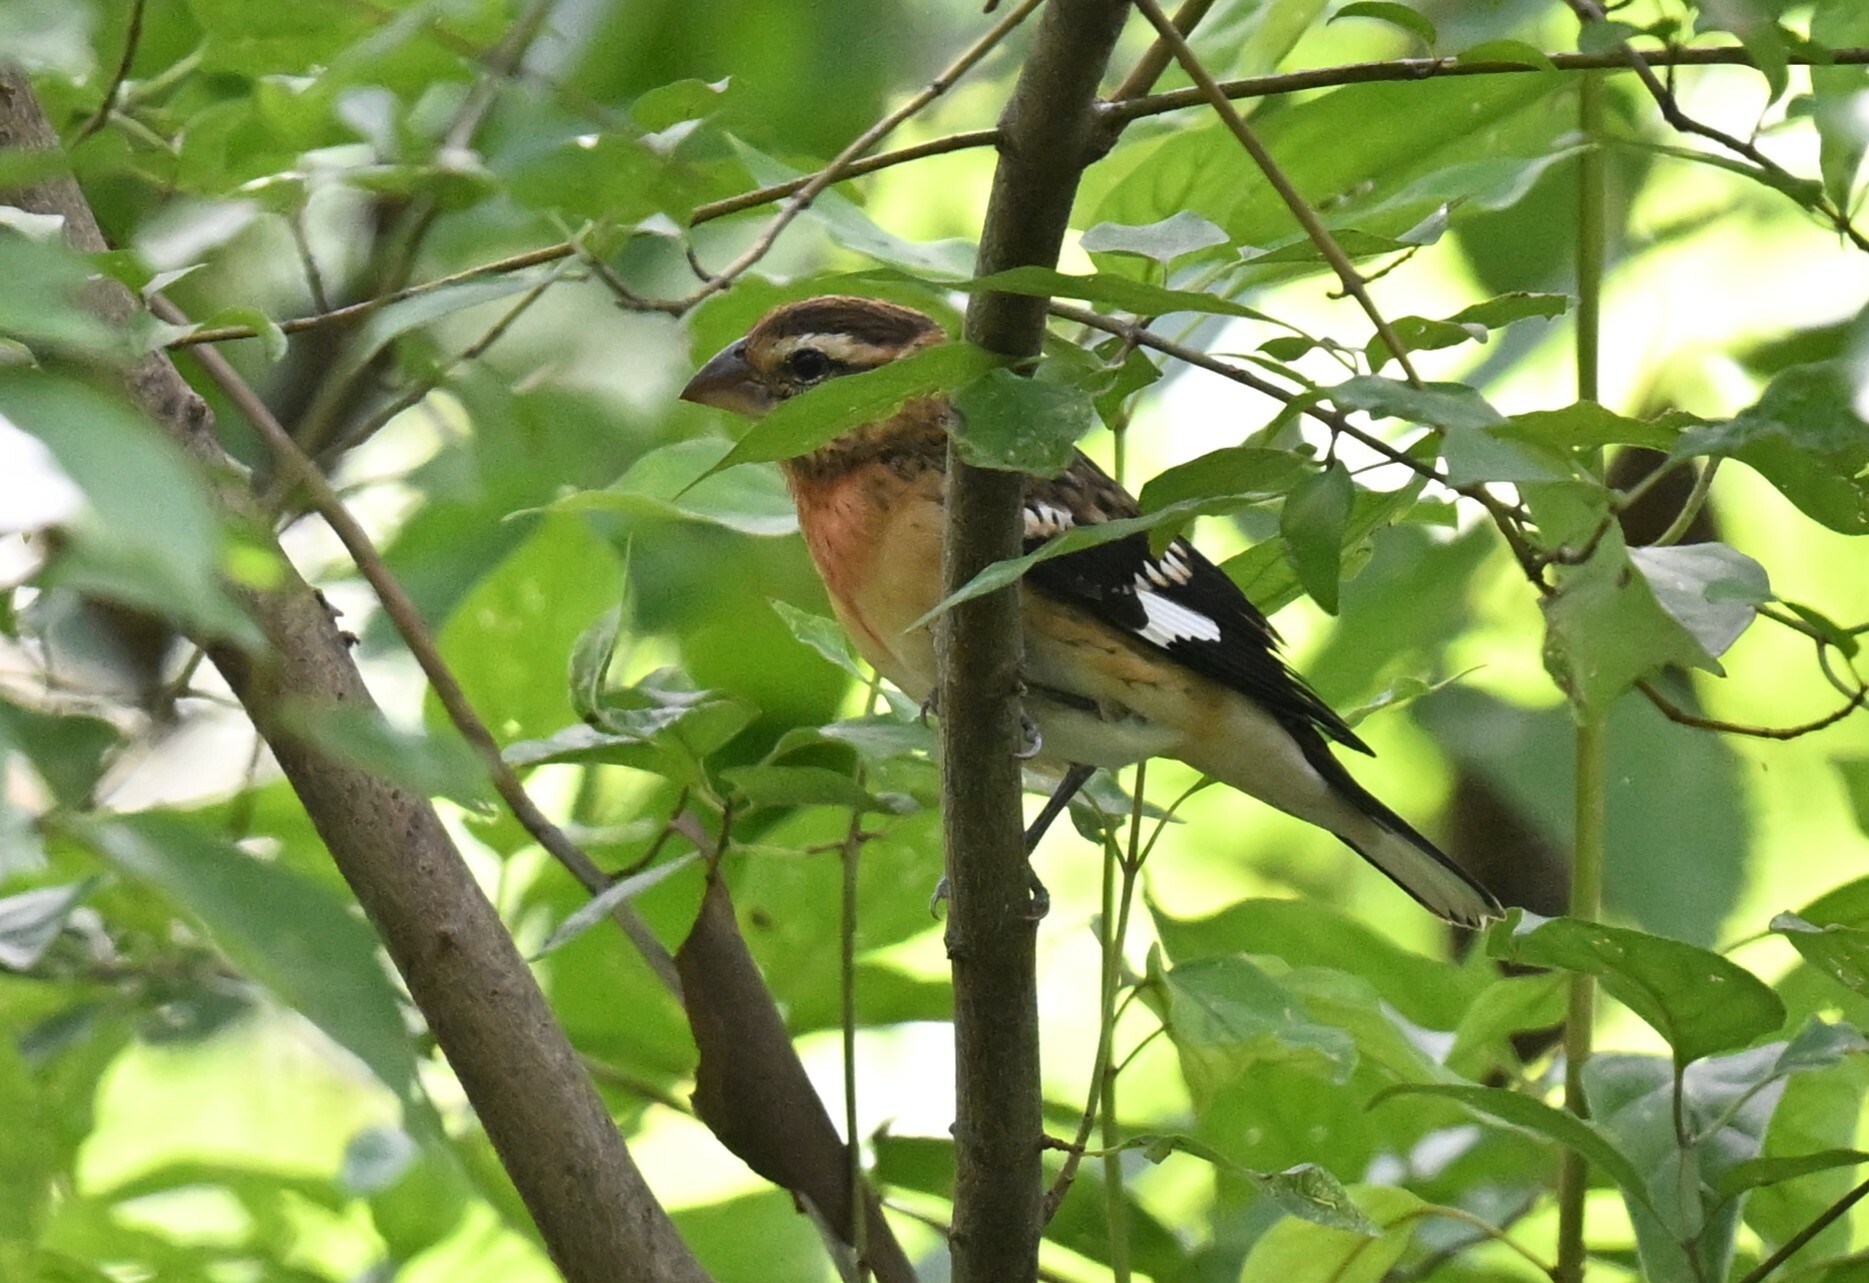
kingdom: Animalia
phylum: Chordata
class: Aves
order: Passeriformes
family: Cardinalidae
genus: Pheucticus
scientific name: Pheucticus ludovicianus
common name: Rose-breasted grosbeak
